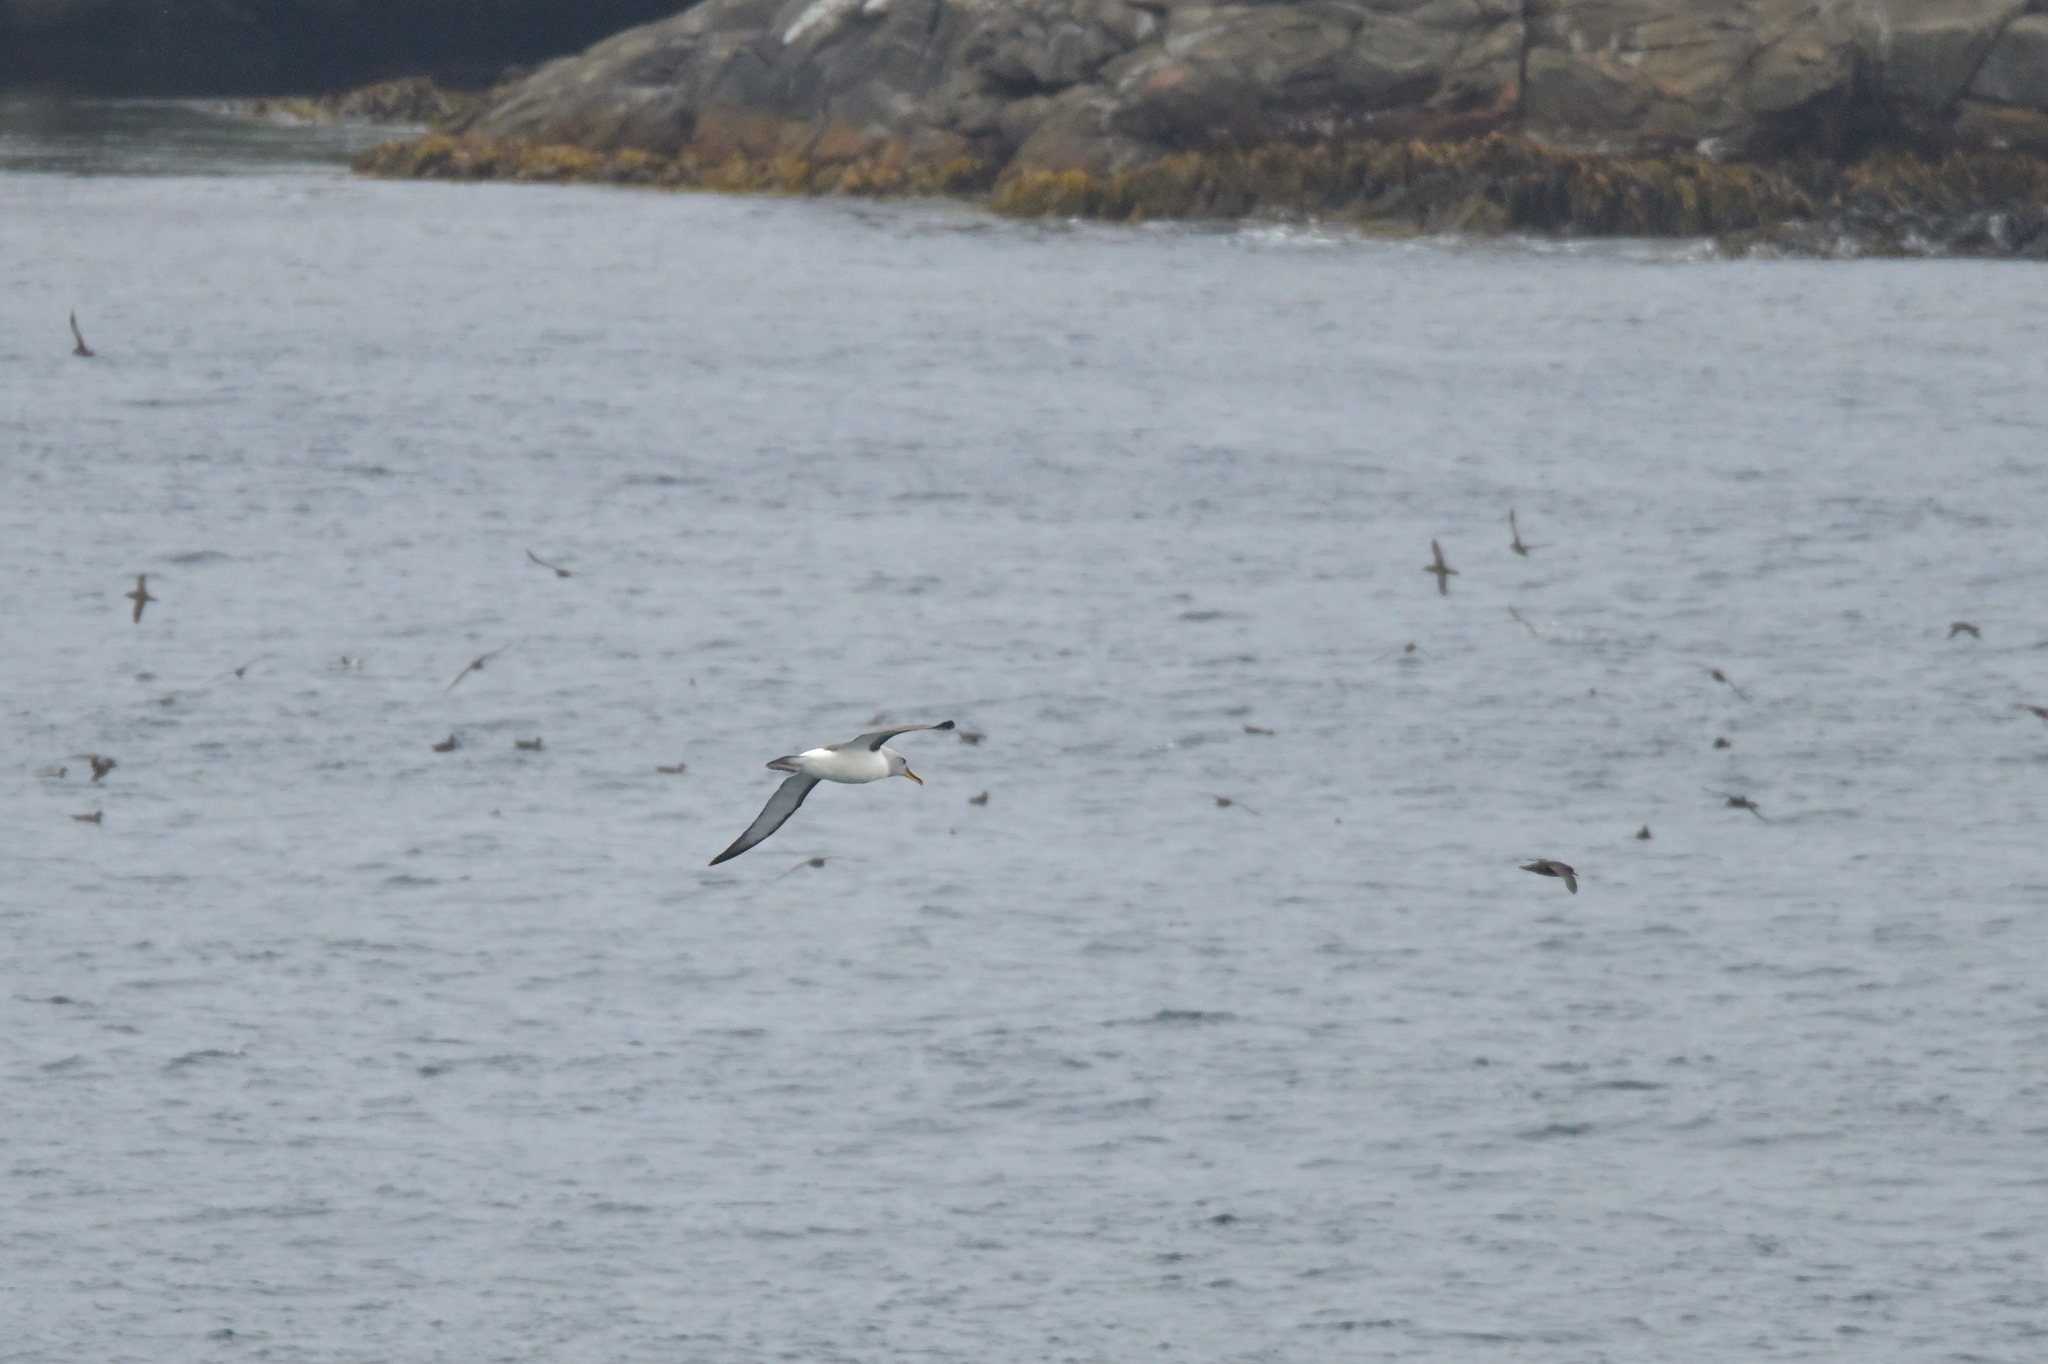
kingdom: Animalia
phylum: Chordata
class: Aves
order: Procellariiformes
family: Diomedeidae
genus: Thalassarche
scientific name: Thalassarche bulleri
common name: Buller's albatross
